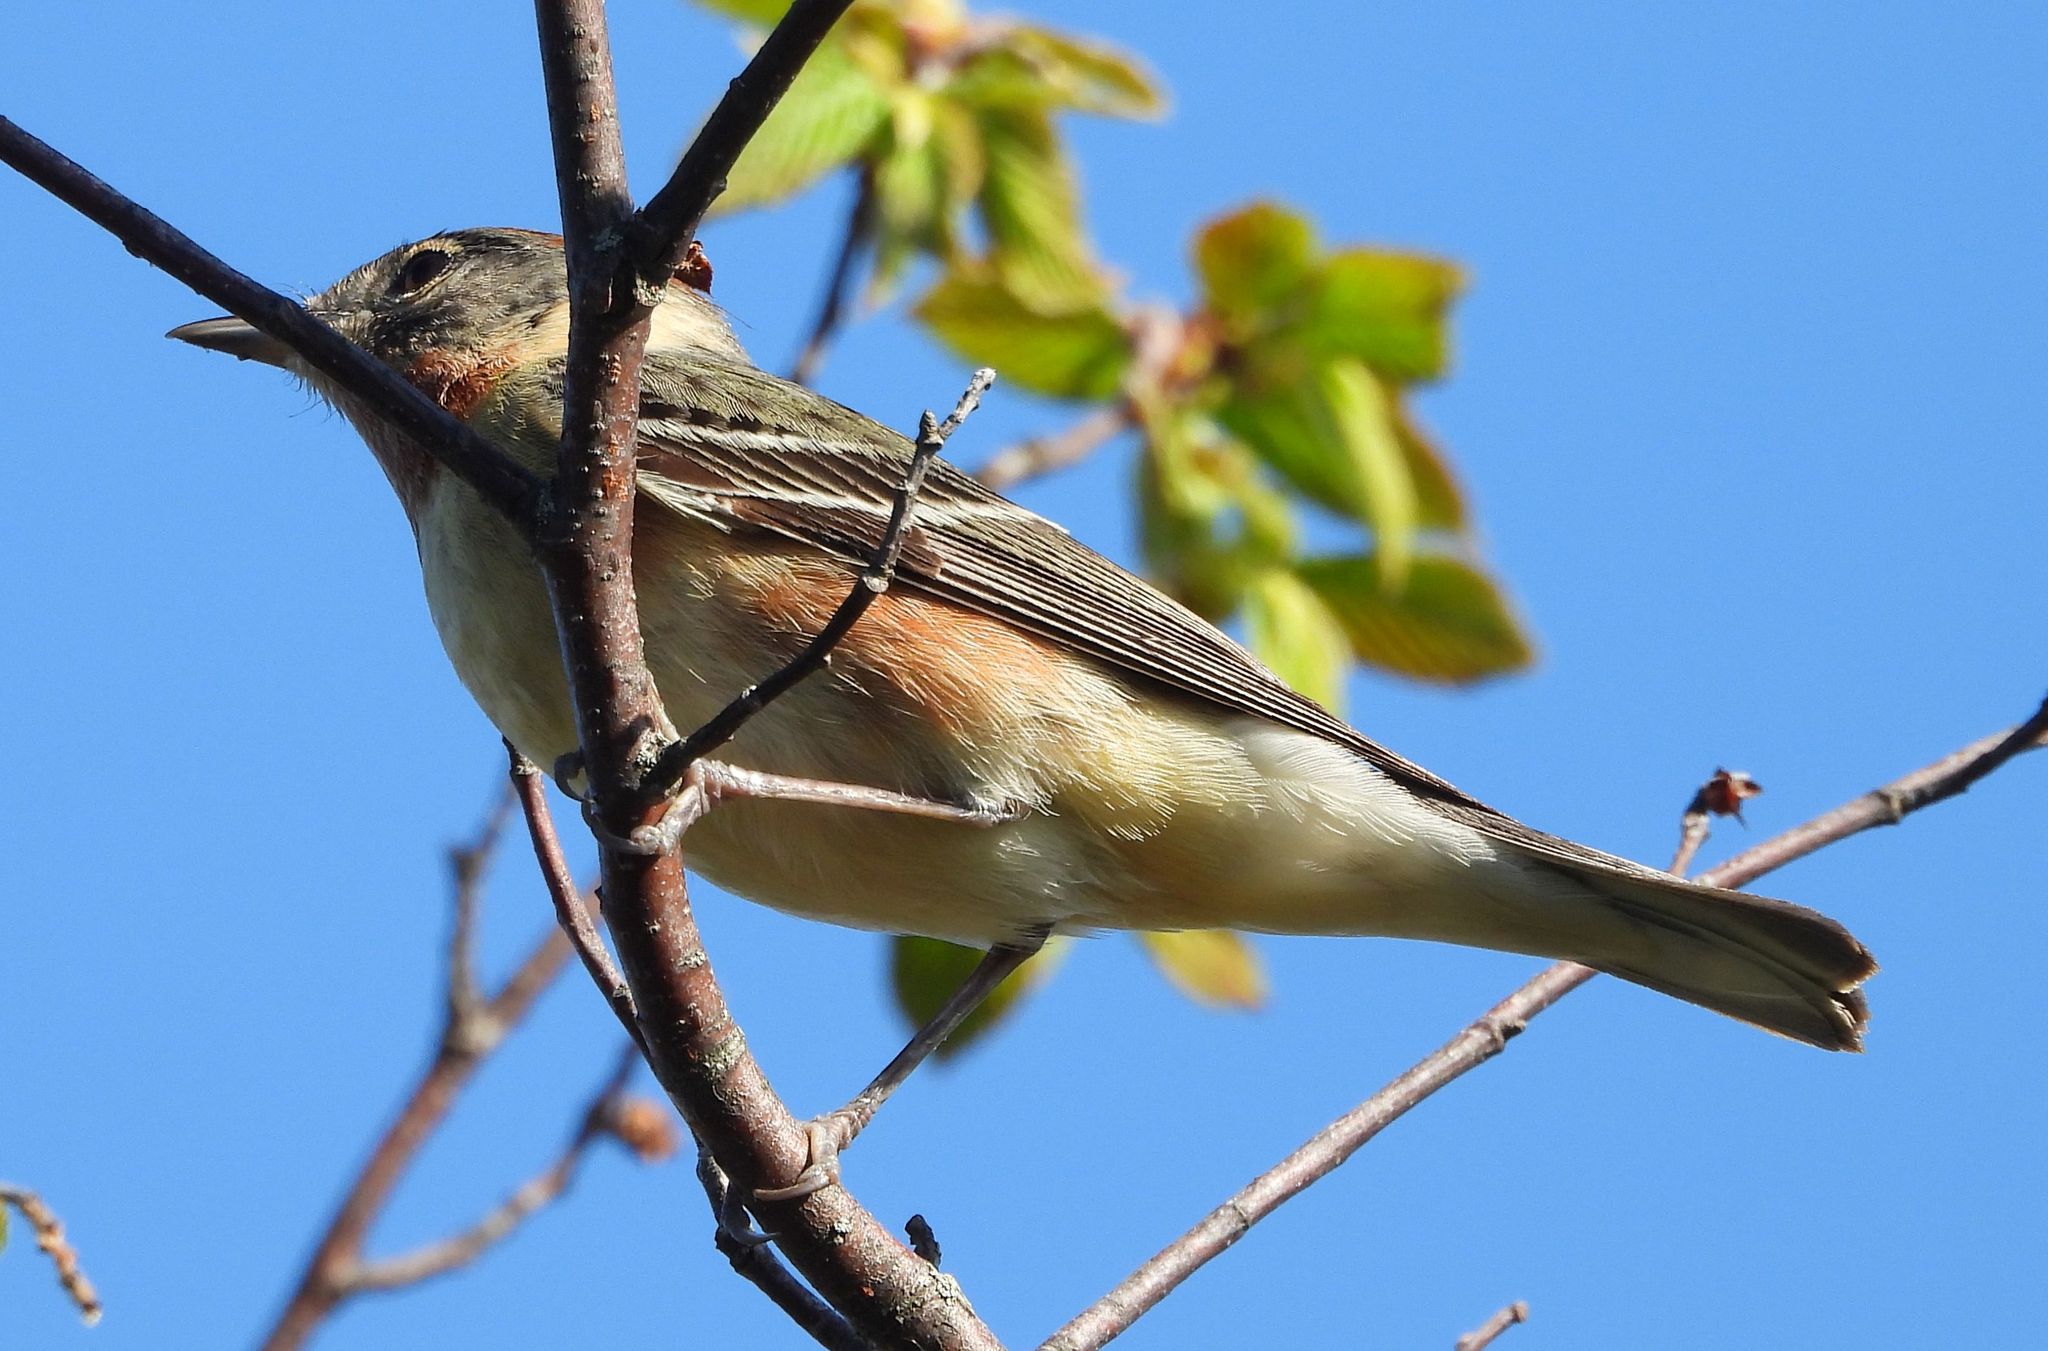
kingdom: Animalia
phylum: Chordata
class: Aves
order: Passeriformes
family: Parulidae
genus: Setophaga
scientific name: Setophaga castanea
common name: Bay-breasted warbler
